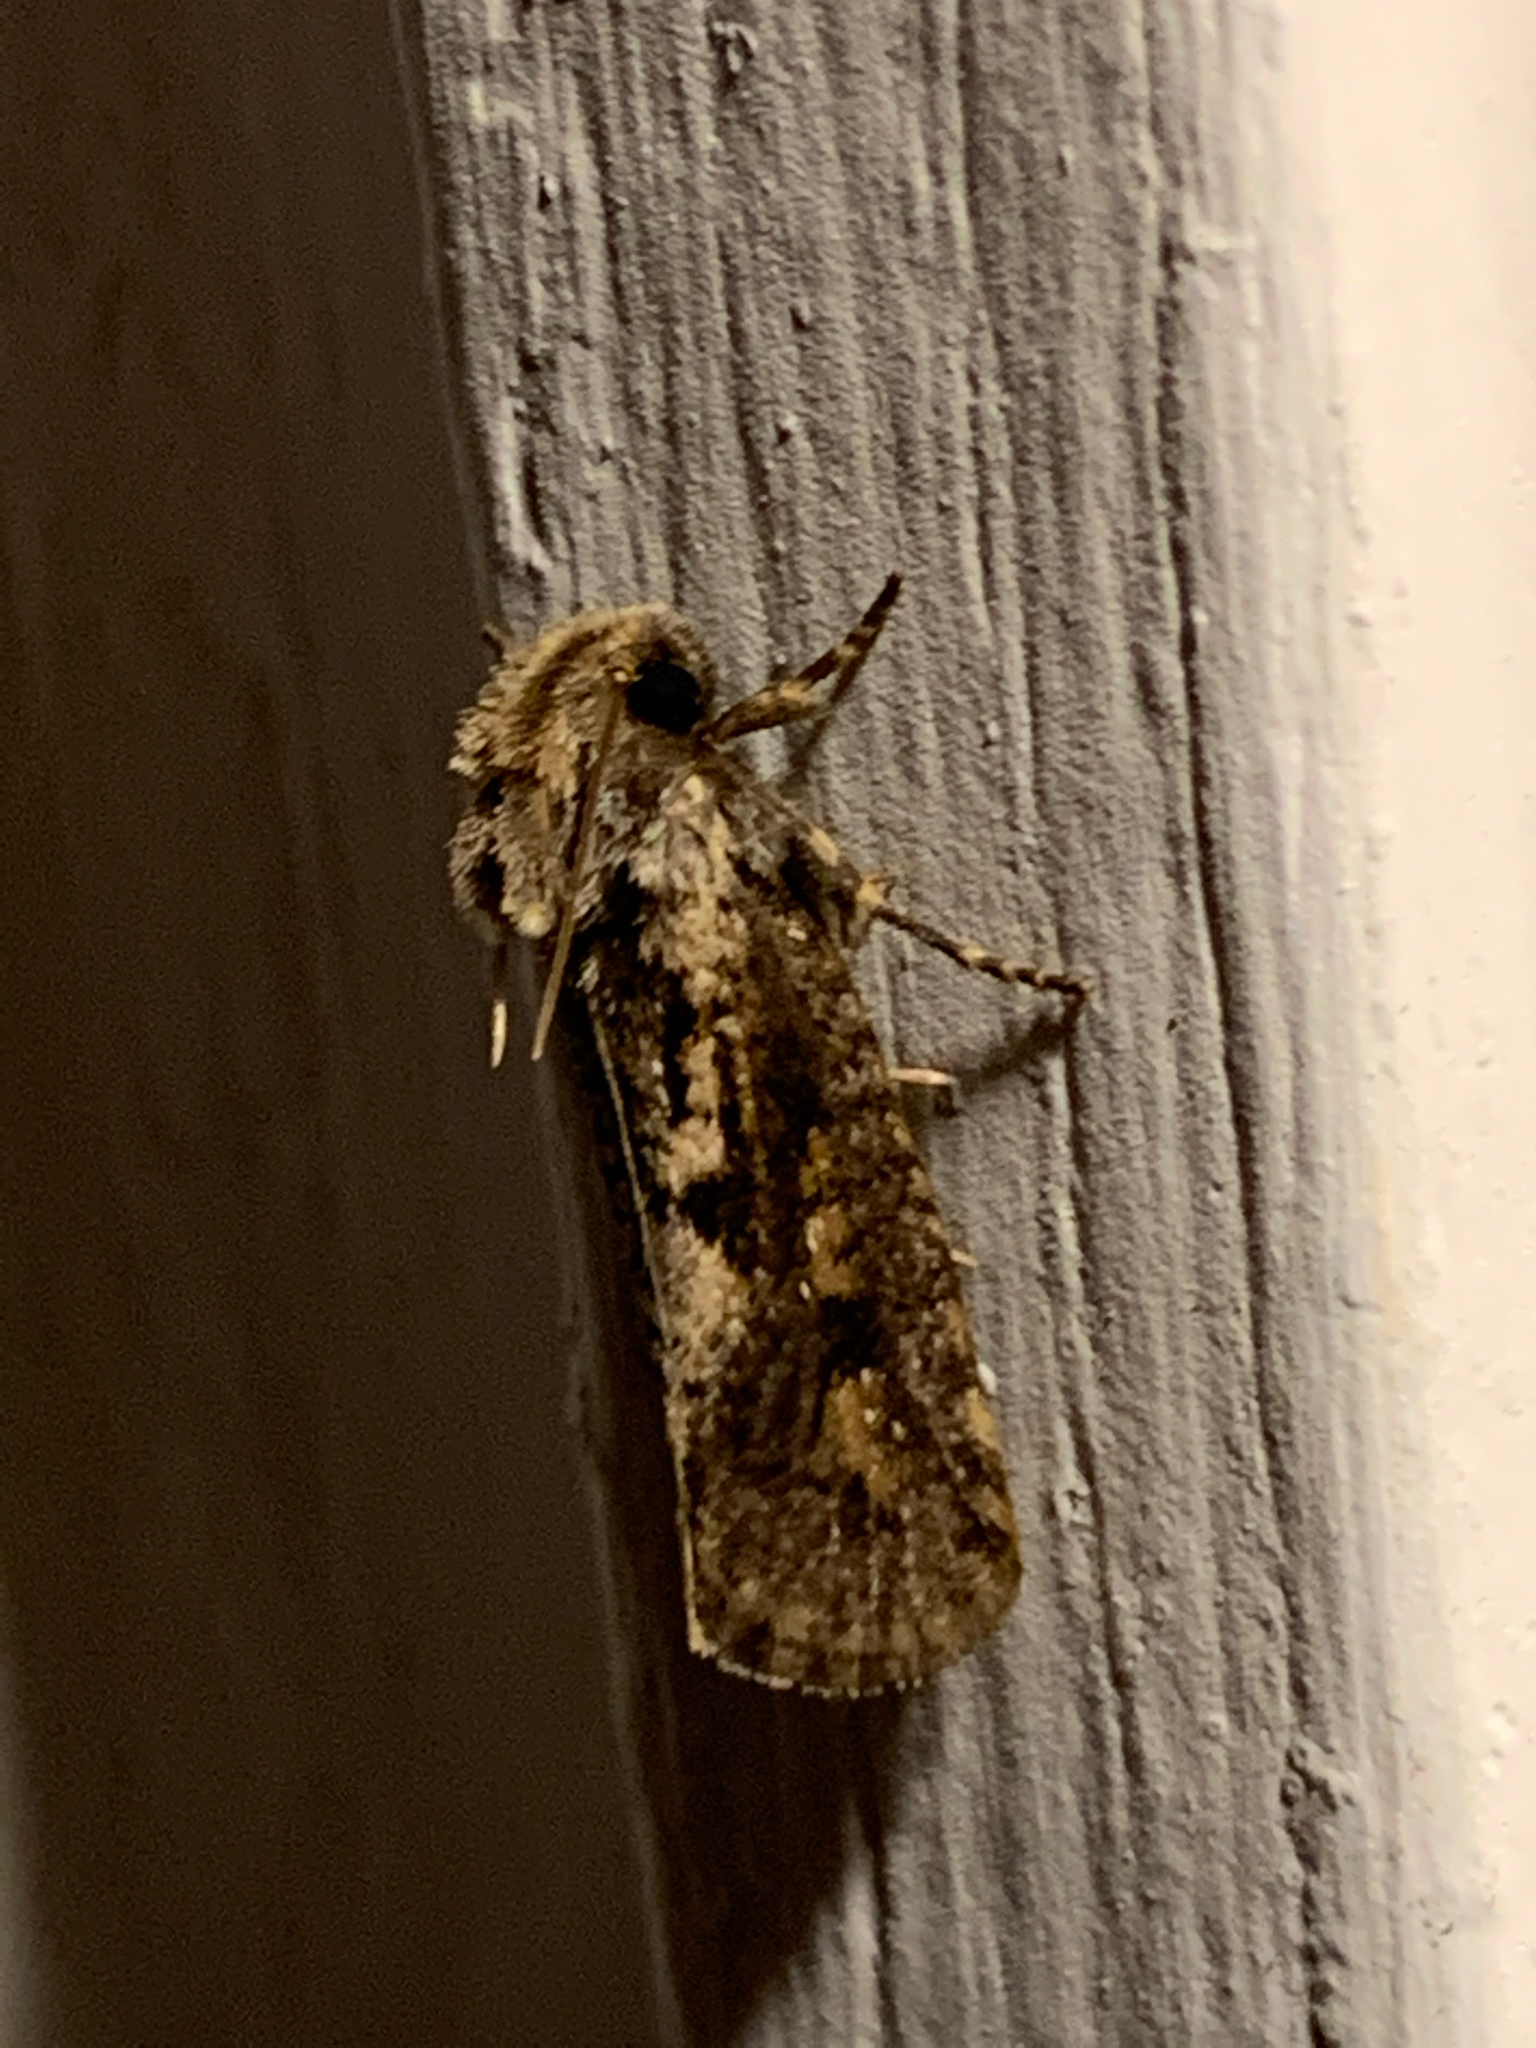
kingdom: Animalia
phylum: Arthropoda
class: Insecta
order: Lepidoptera
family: Tineidae
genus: Acrolophus
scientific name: Acrolophus popeanella
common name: Clemens' grass tubeworm moth
